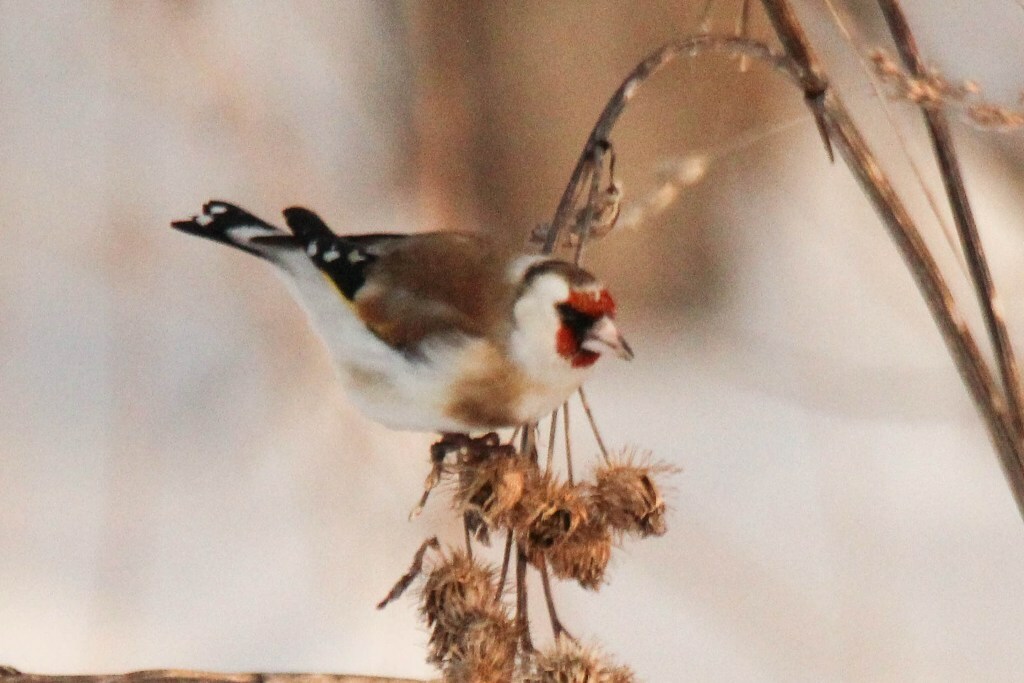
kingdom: Animalia
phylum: Chordata
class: Aves
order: Passeriformes
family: Fringillidae
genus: Carduelis
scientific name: Carduelis carduelis
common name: European goldfinch
